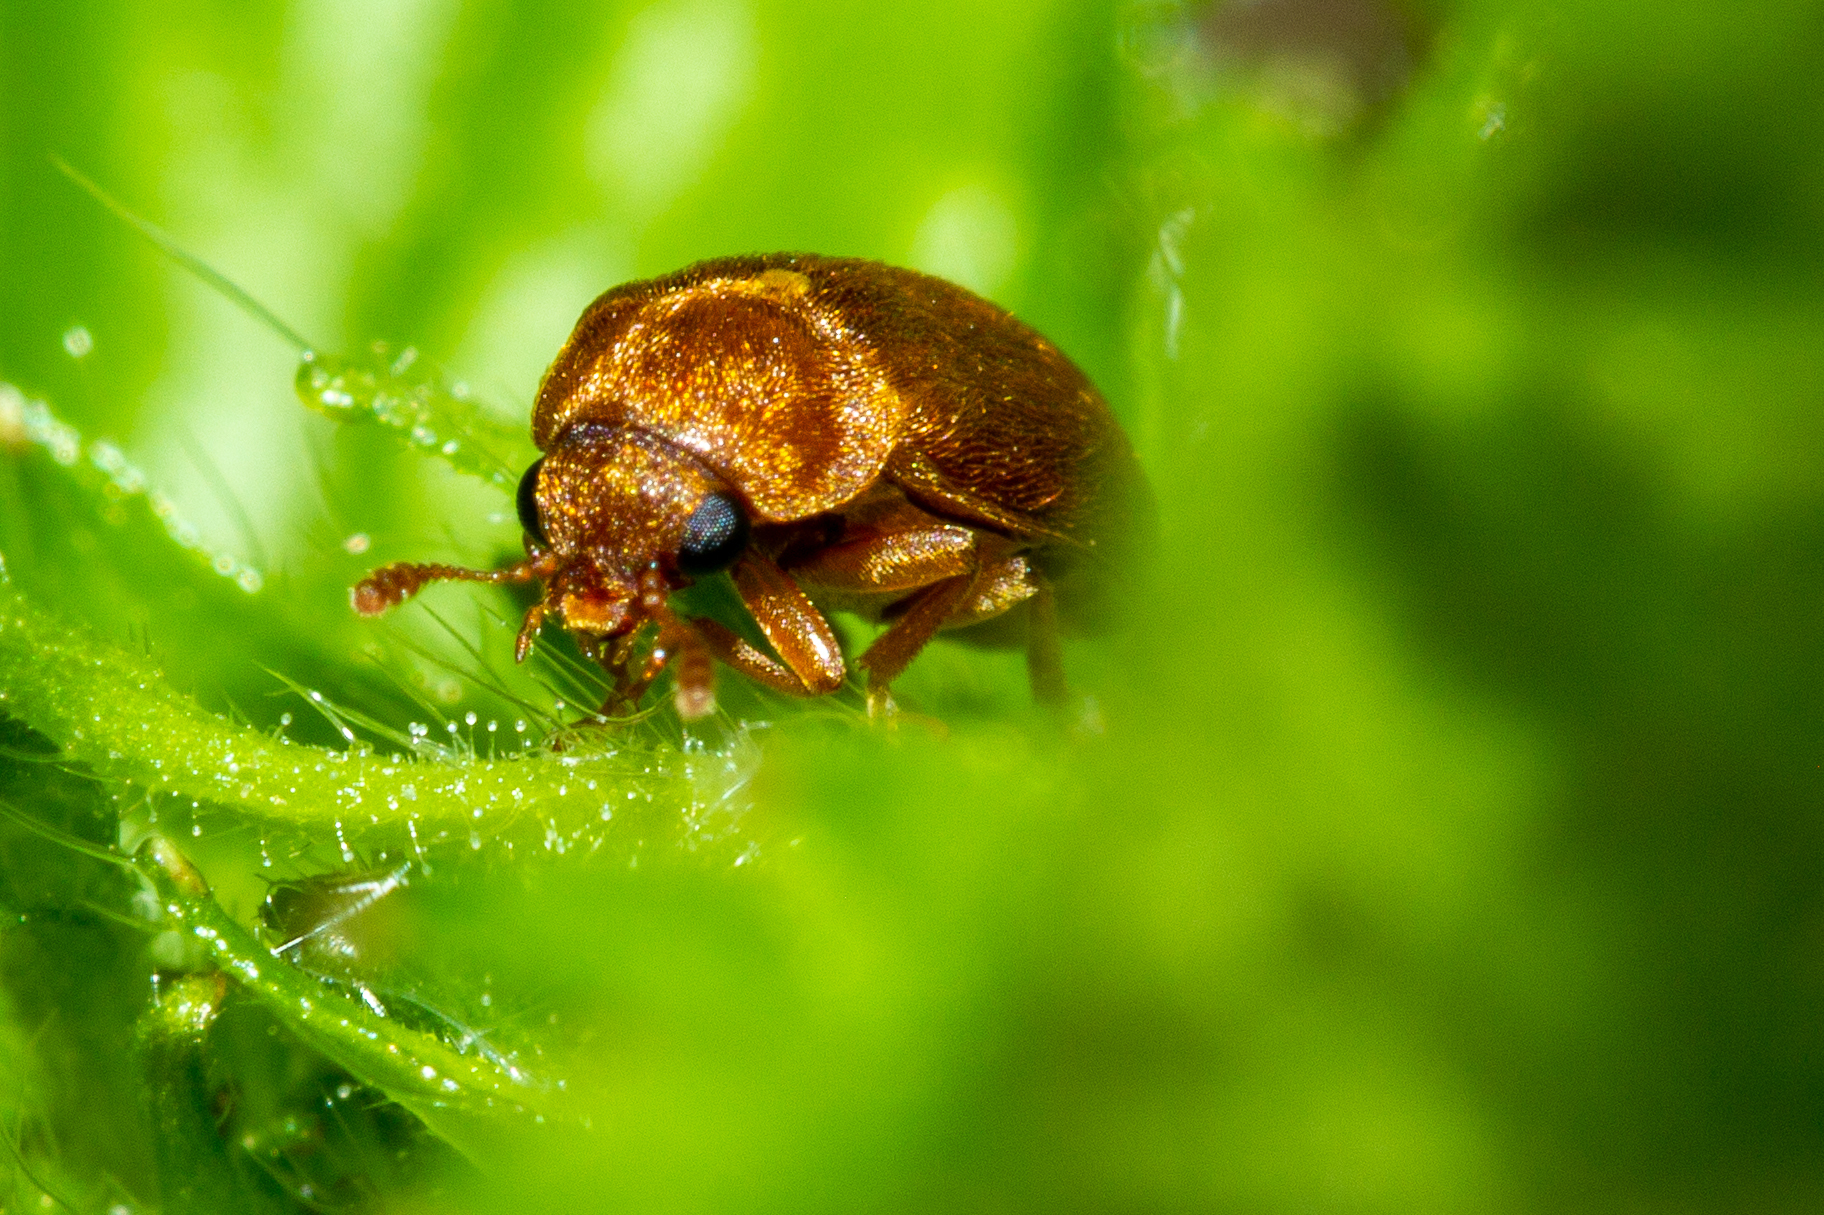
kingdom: Animalia
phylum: Arthropoda
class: Insecta
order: Coleoptera
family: Byturidae
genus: Byturus
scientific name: Byturus unicolor
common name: Raspberry fruitworm beetle
